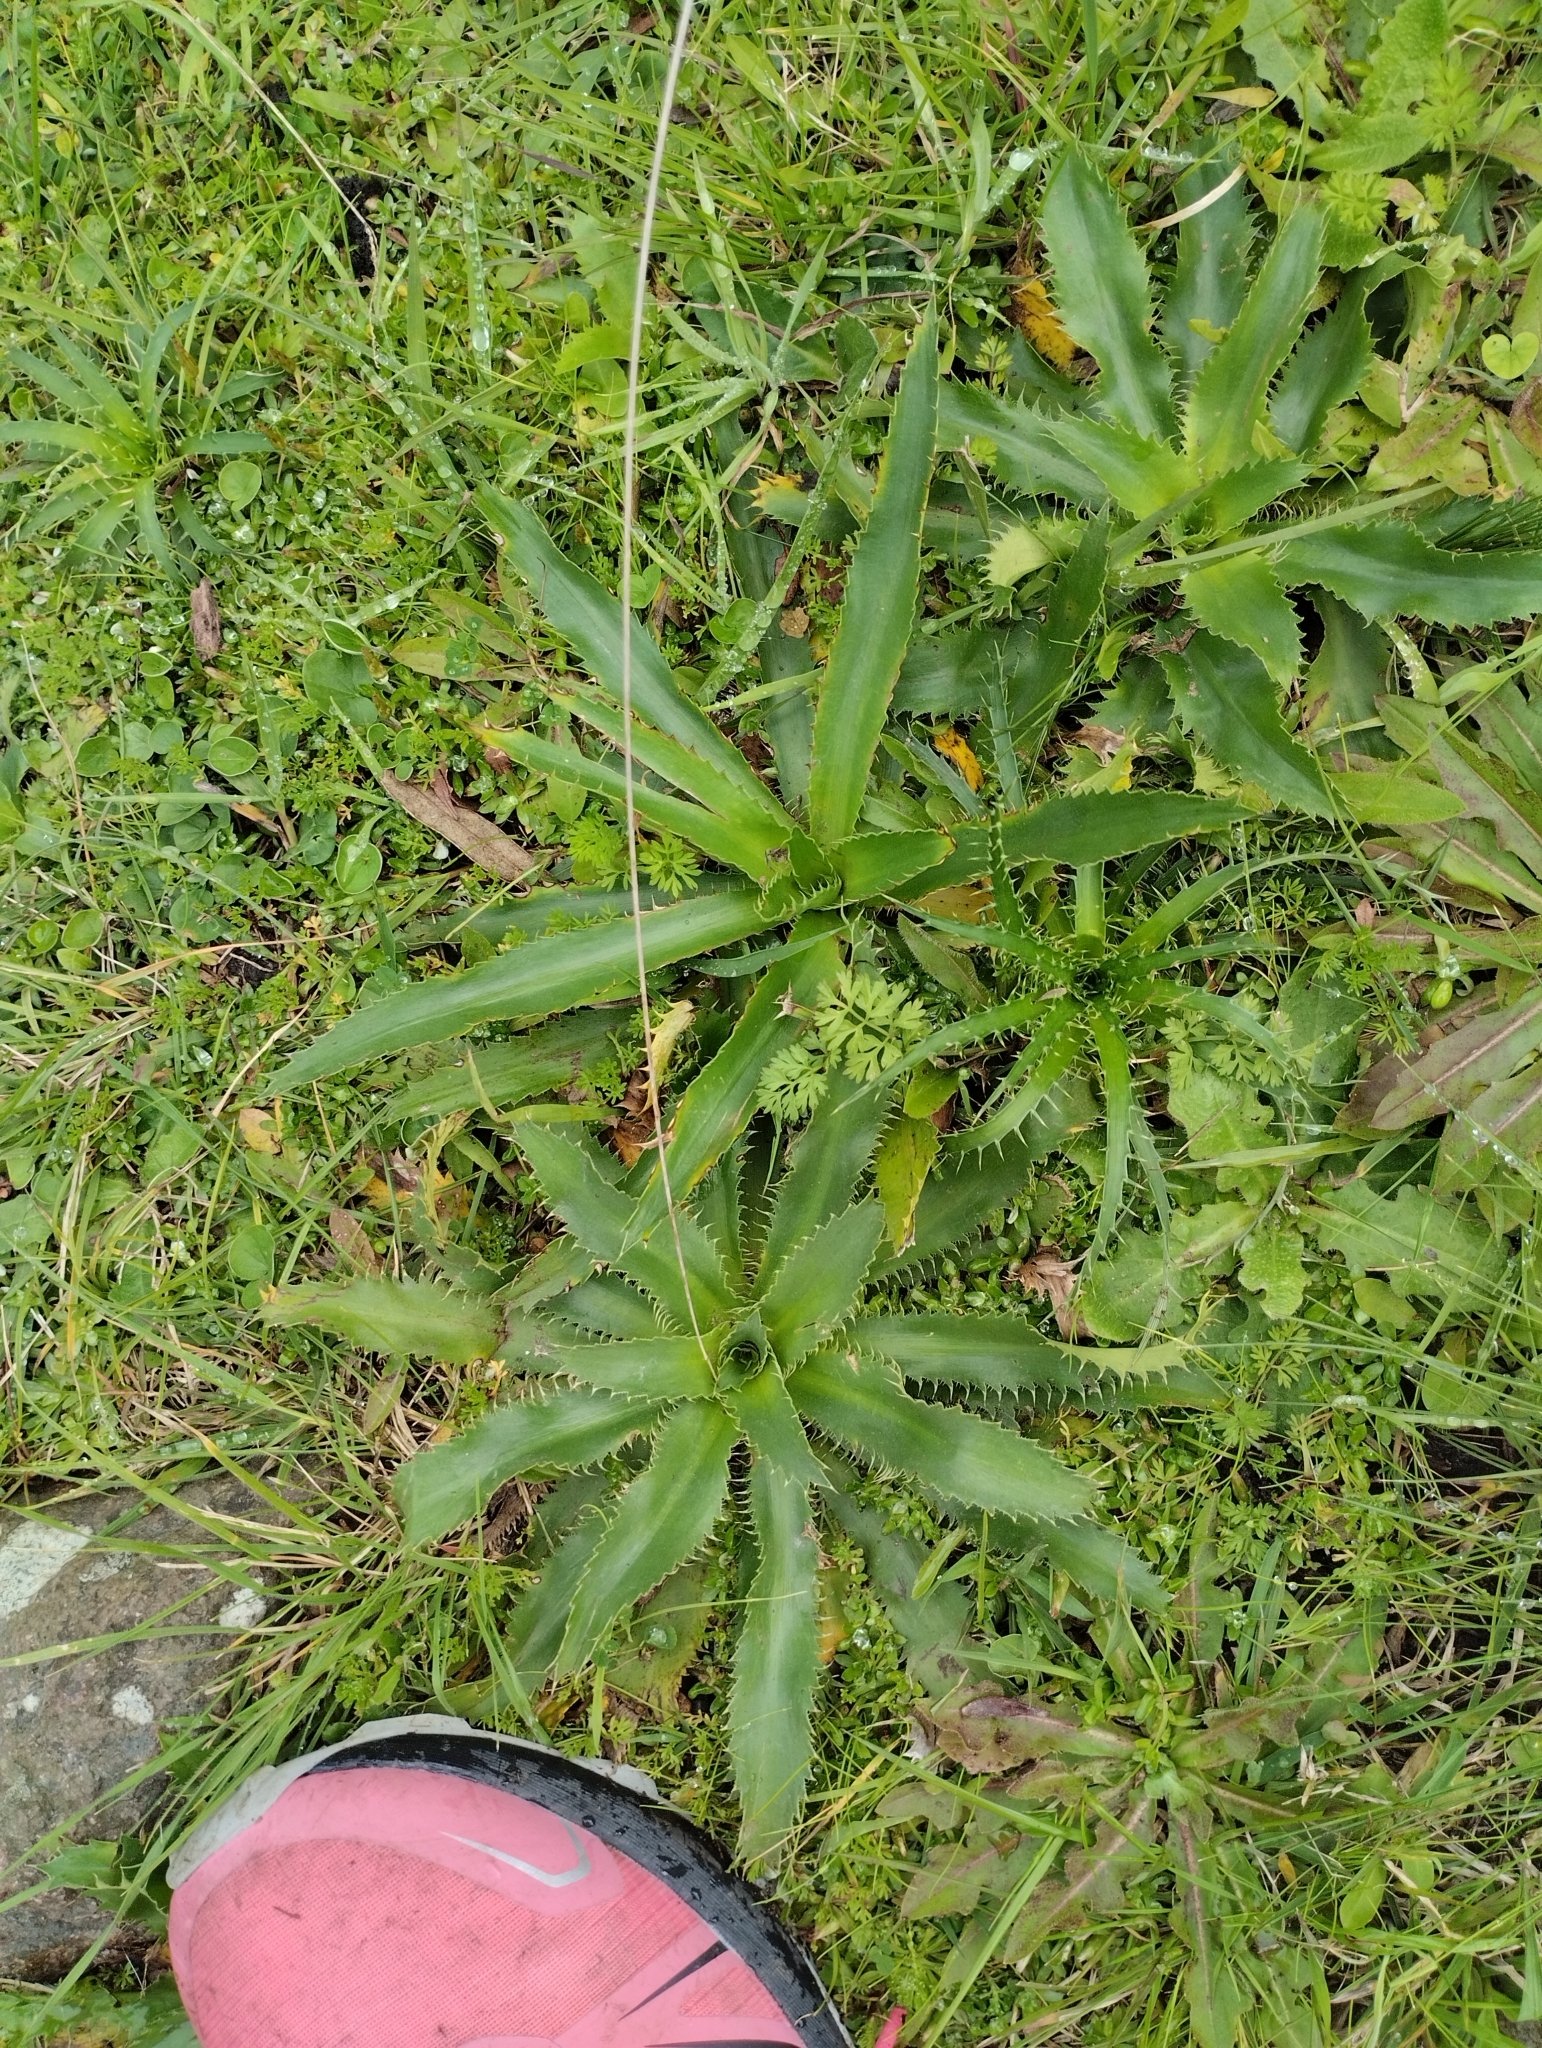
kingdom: Plantae
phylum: Tracheophyta
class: Magnoliopsida
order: Apiales
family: Apiaceae
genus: Eryngium
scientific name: Eryngium elegans
